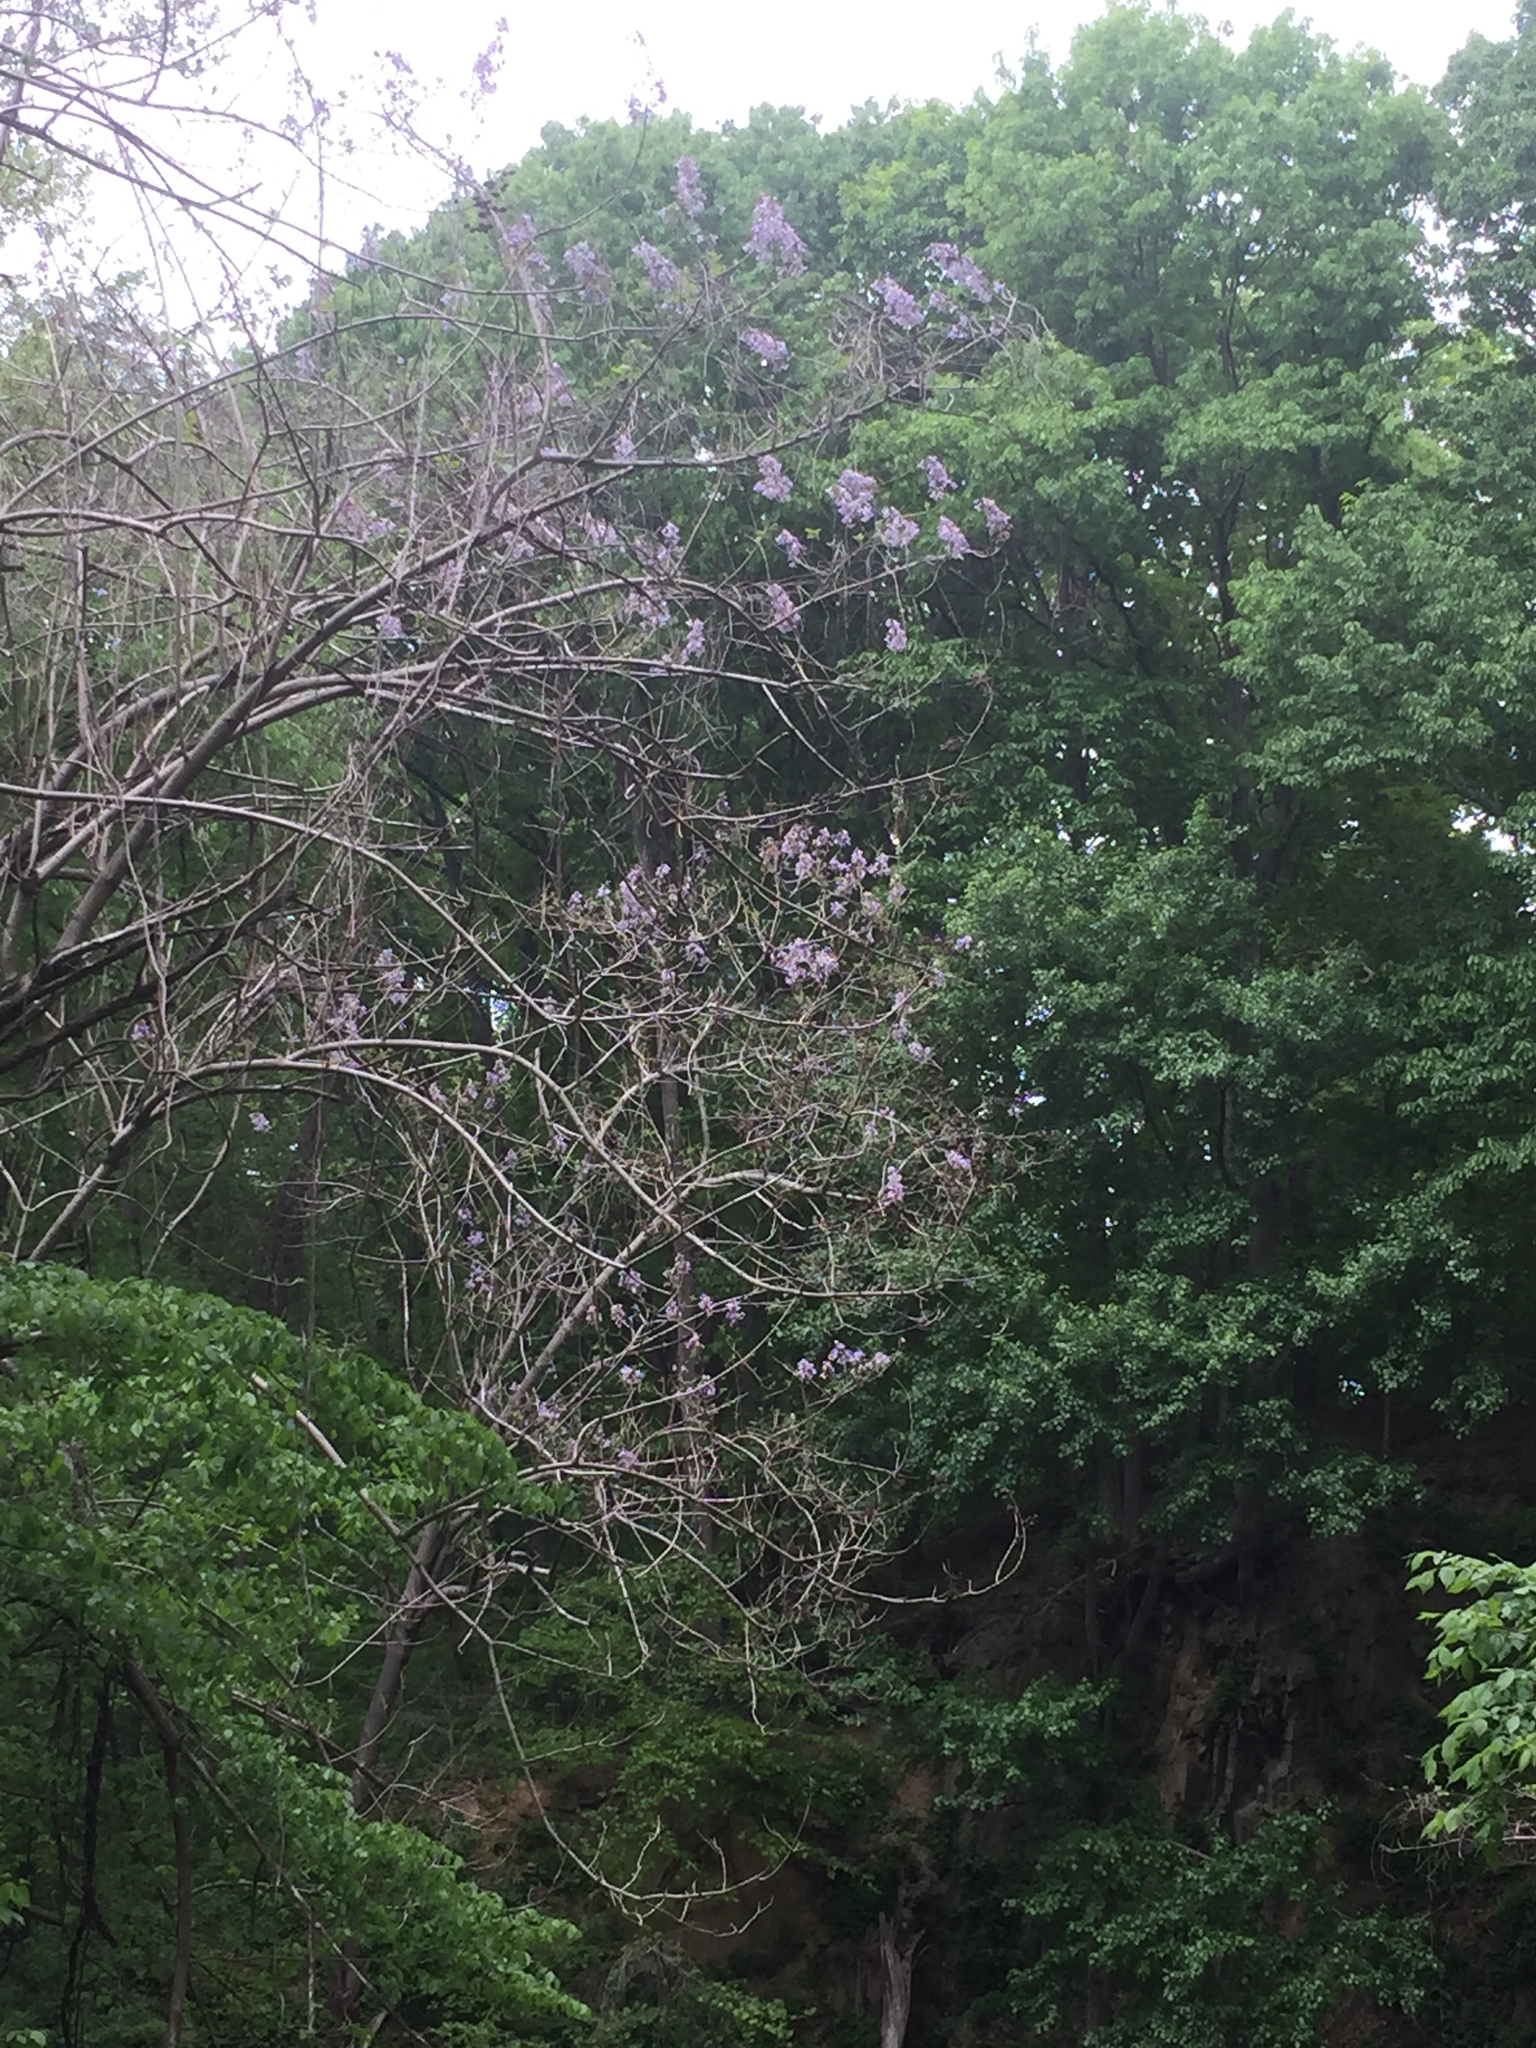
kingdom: Plantae
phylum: Tracheophyta
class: Magnoliopsida
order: Lamiales
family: Paulowniaceae
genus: Paulownia
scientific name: Paulownia tomentosa
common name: Foxglove-tree
